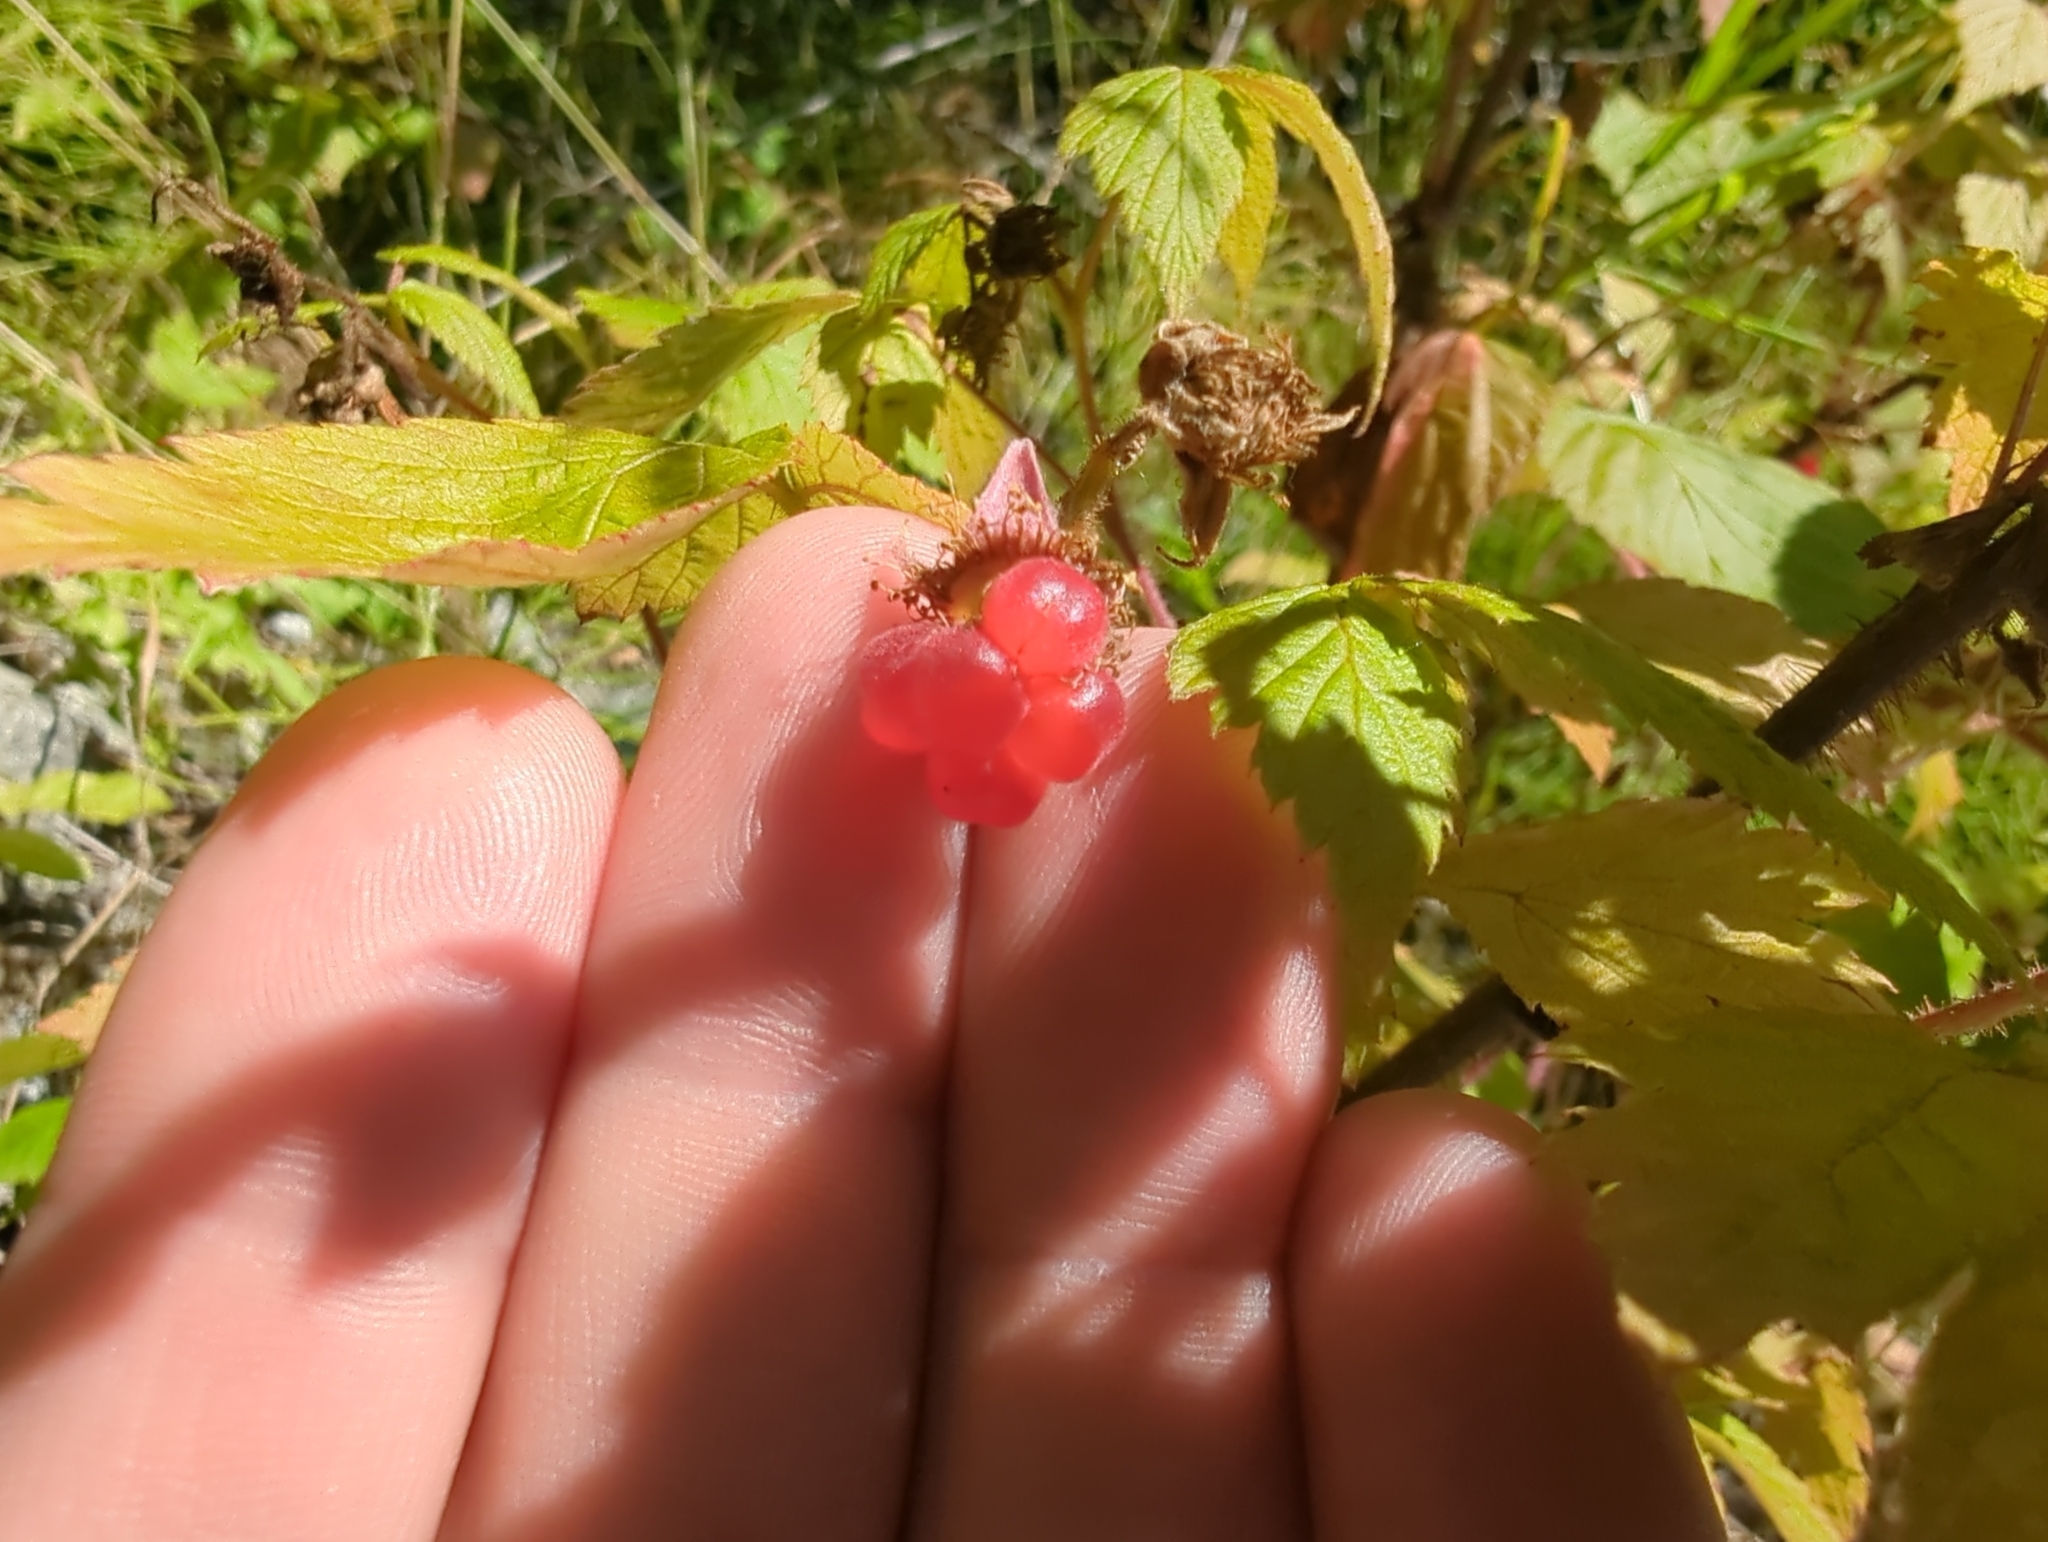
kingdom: Plantae
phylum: Tracheophyta
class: Magnoliopsida
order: Rosales
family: Rosaceae
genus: Rubus
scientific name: Rubus idaeus
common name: Raspberry
